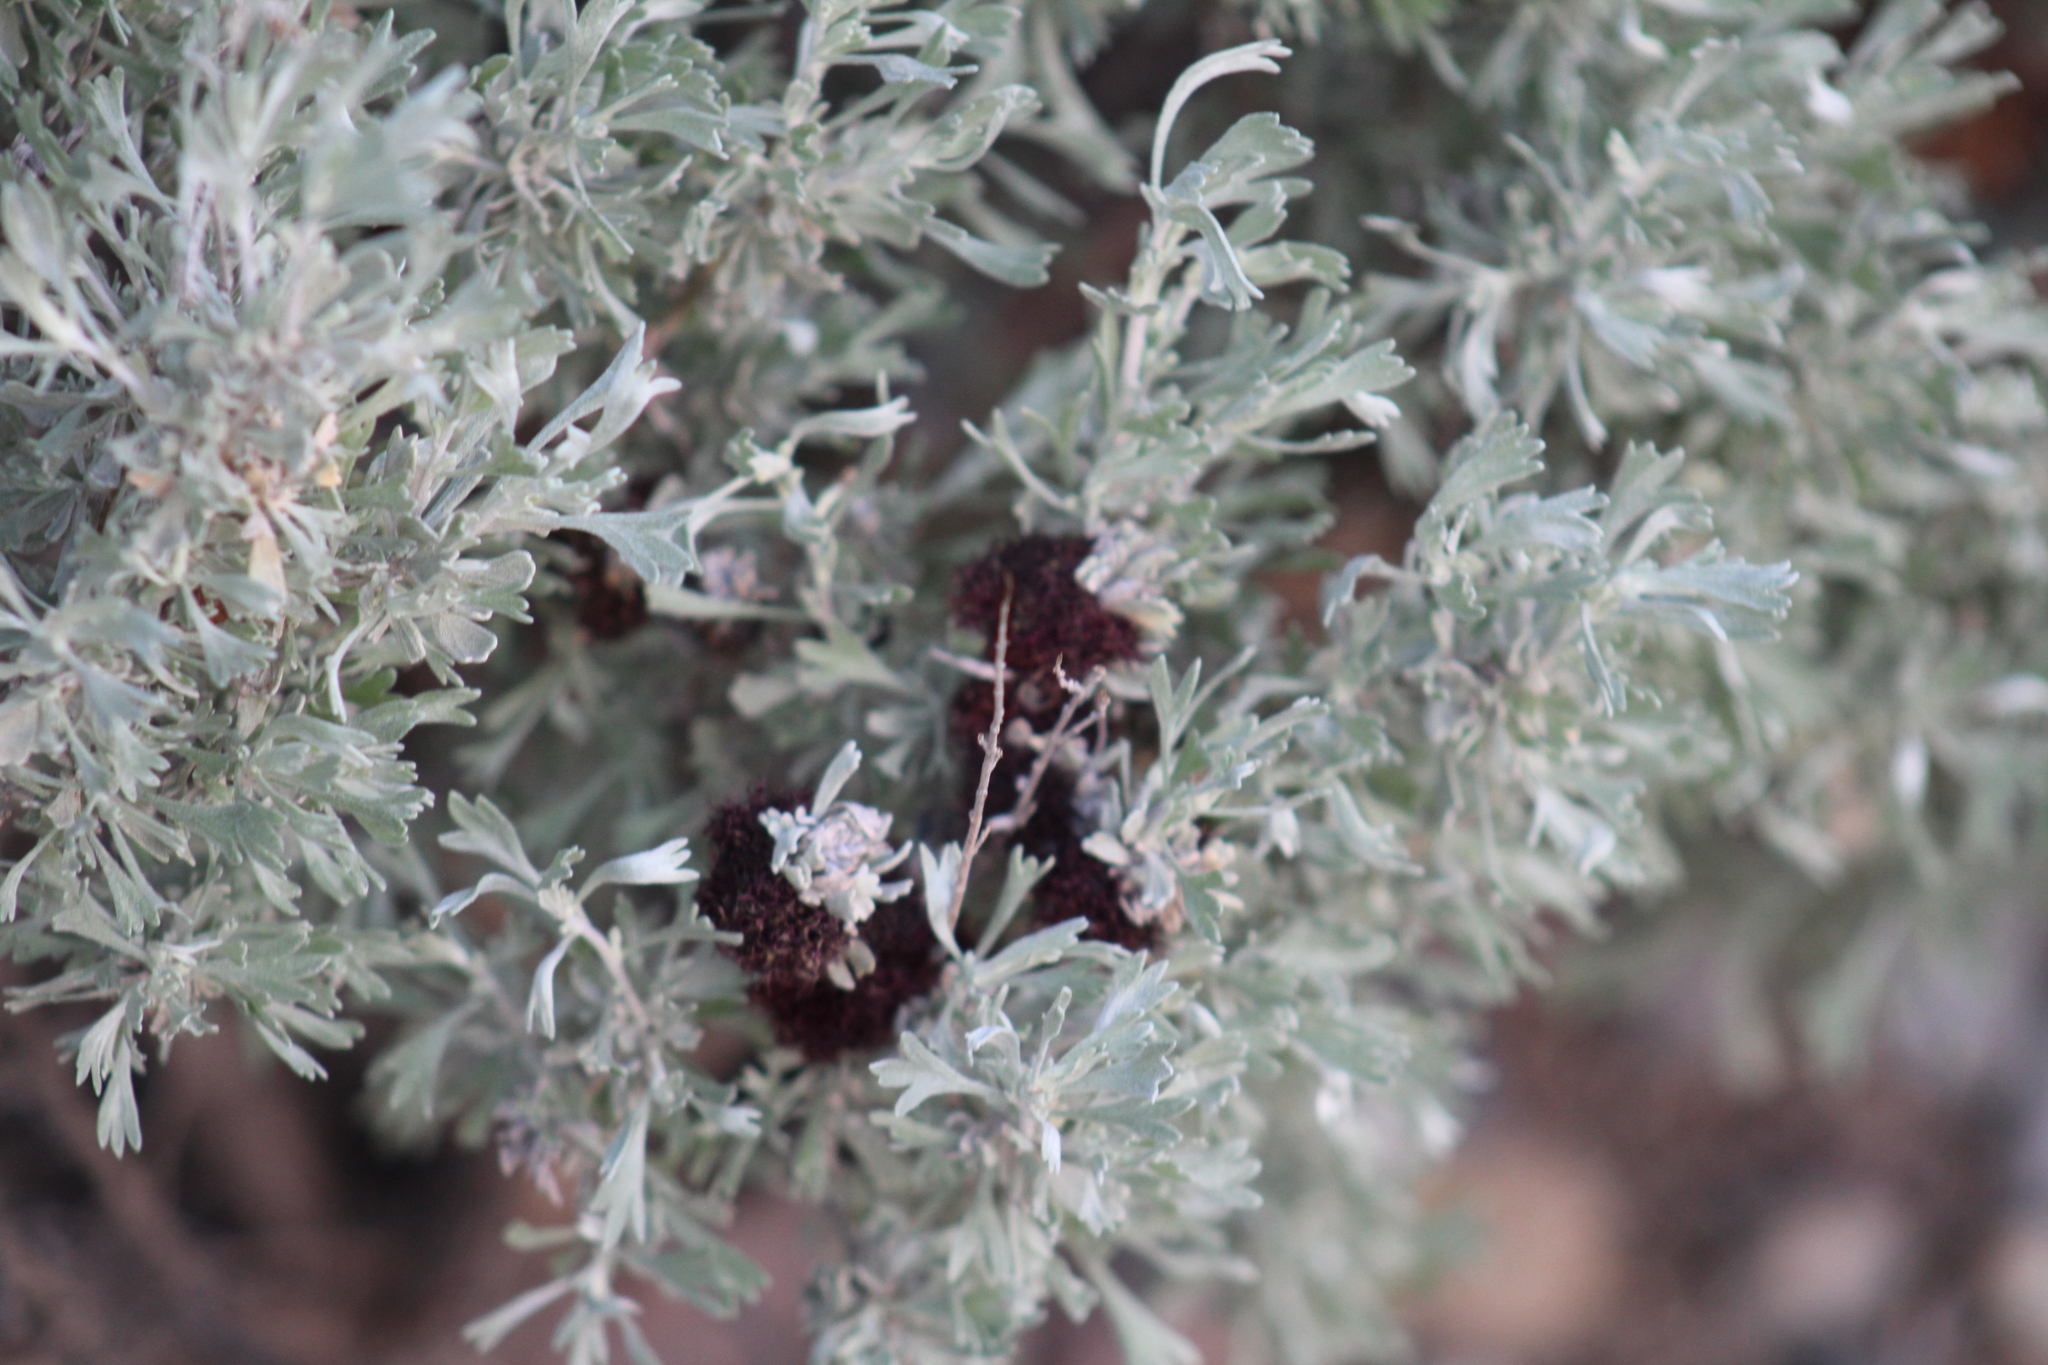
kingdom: Animalia
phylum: Arthropoda
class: Insecta
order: Diptera
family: Cecidomyiidae
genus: Rhopalomyia
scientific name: Rhopalomyia medusa
